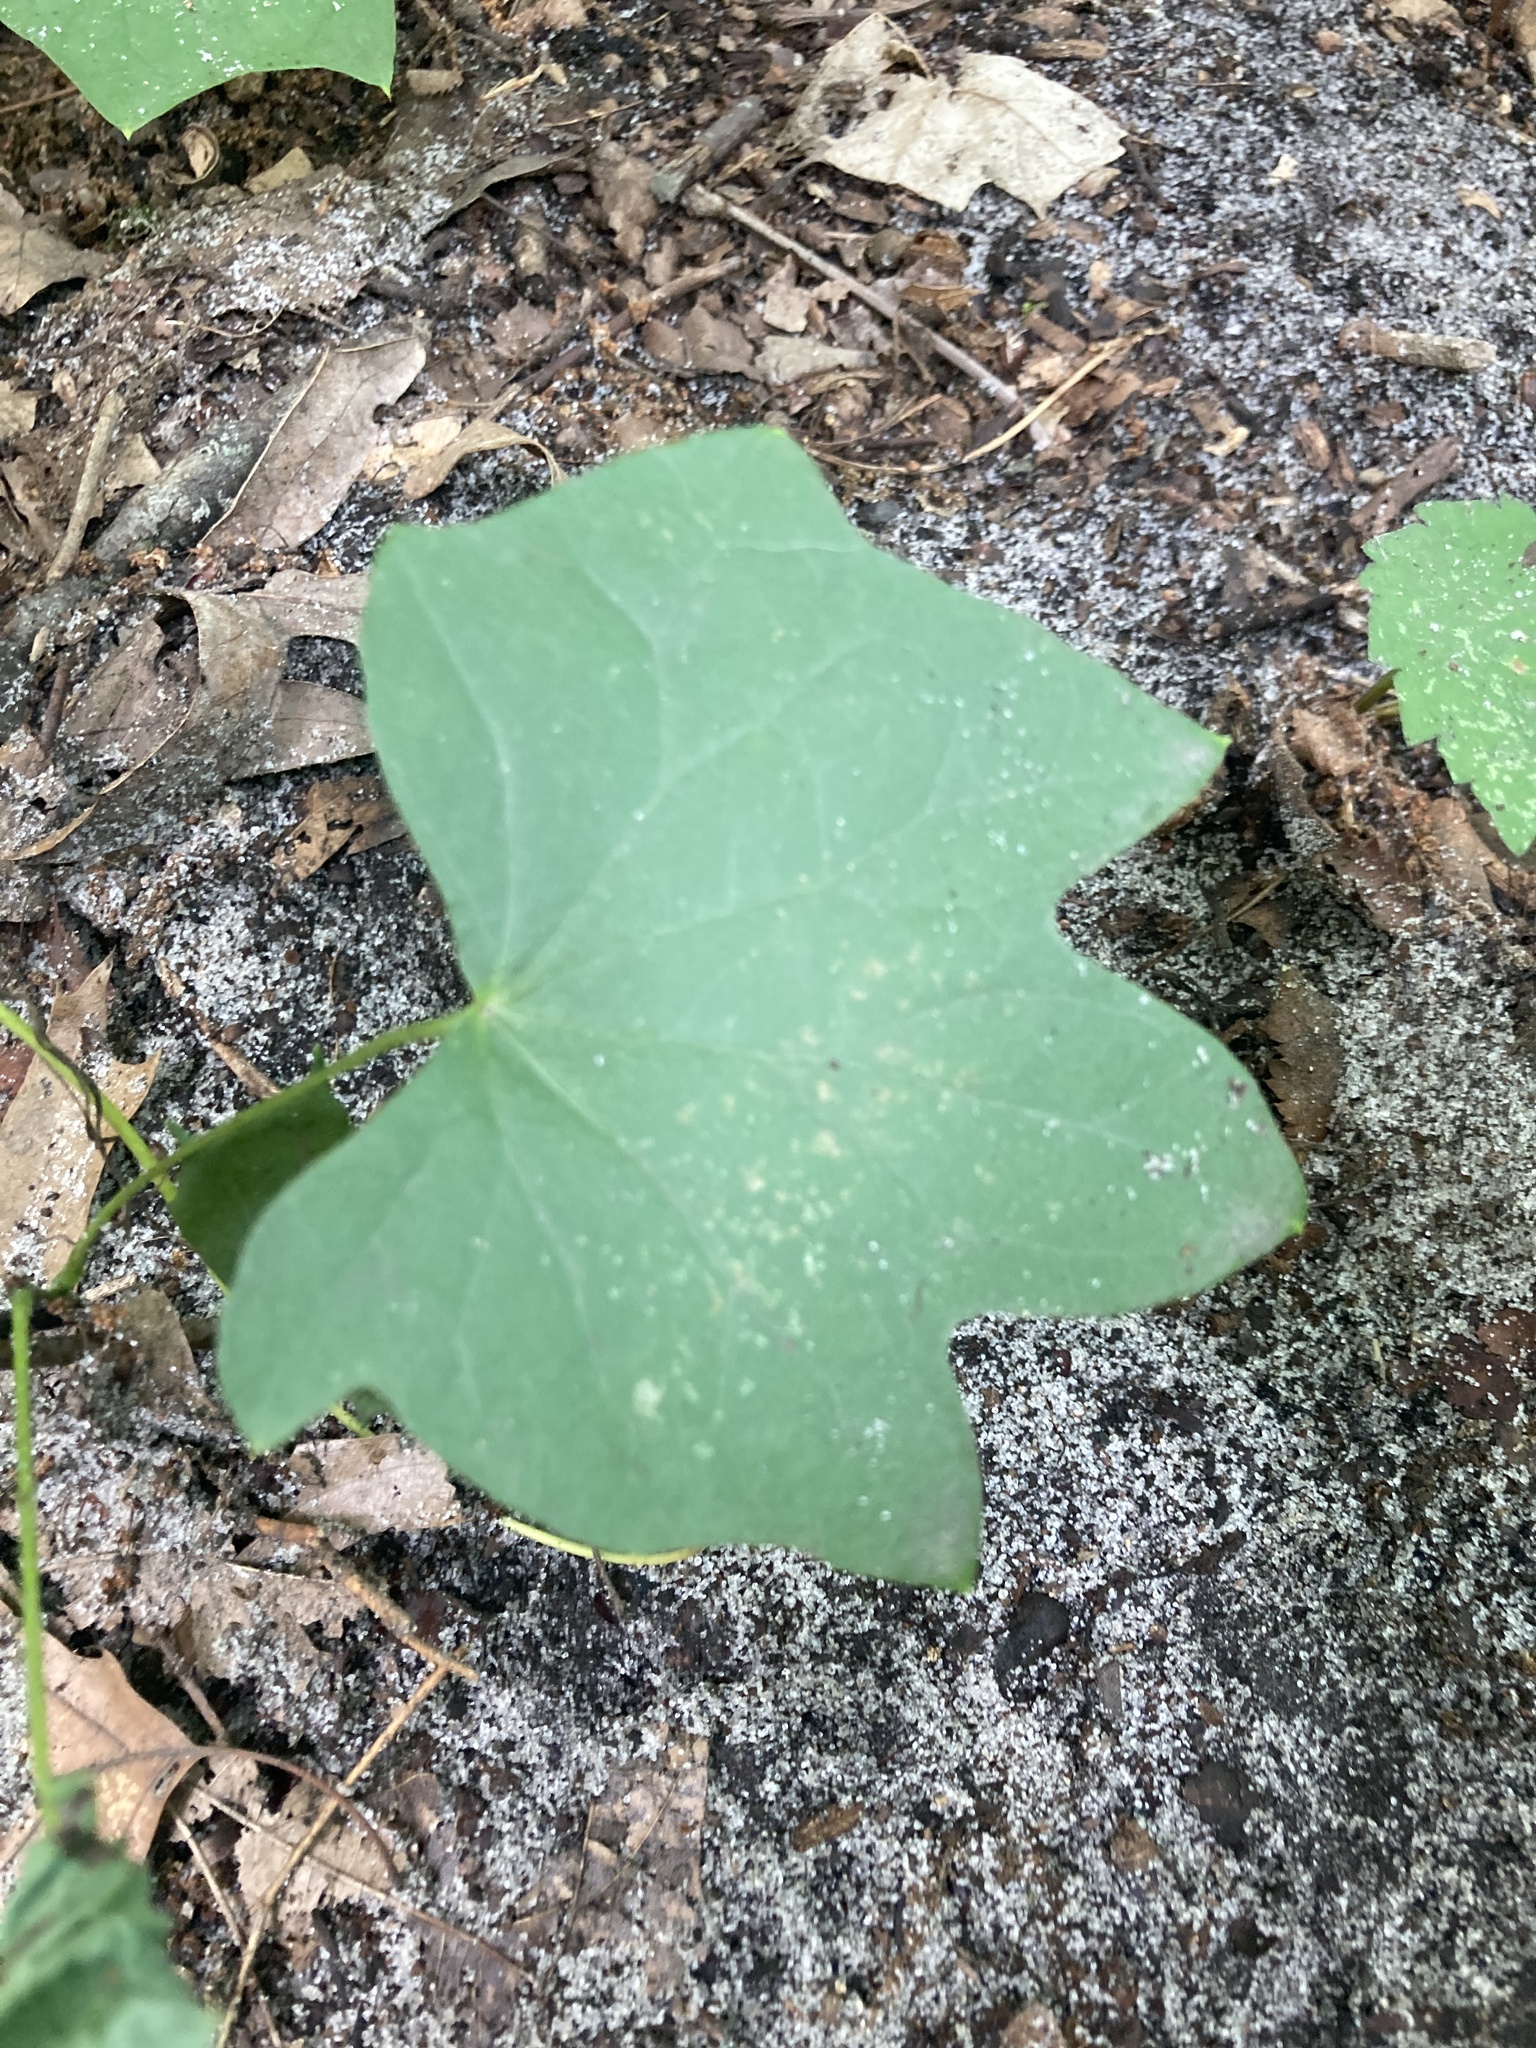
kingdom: Plantae
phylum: Tracheophyta
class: Magnoliopsida
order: Ranunculales
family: Menispermaceae
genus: Menispermum
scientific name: Menispermum canadense
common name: Moonseed
